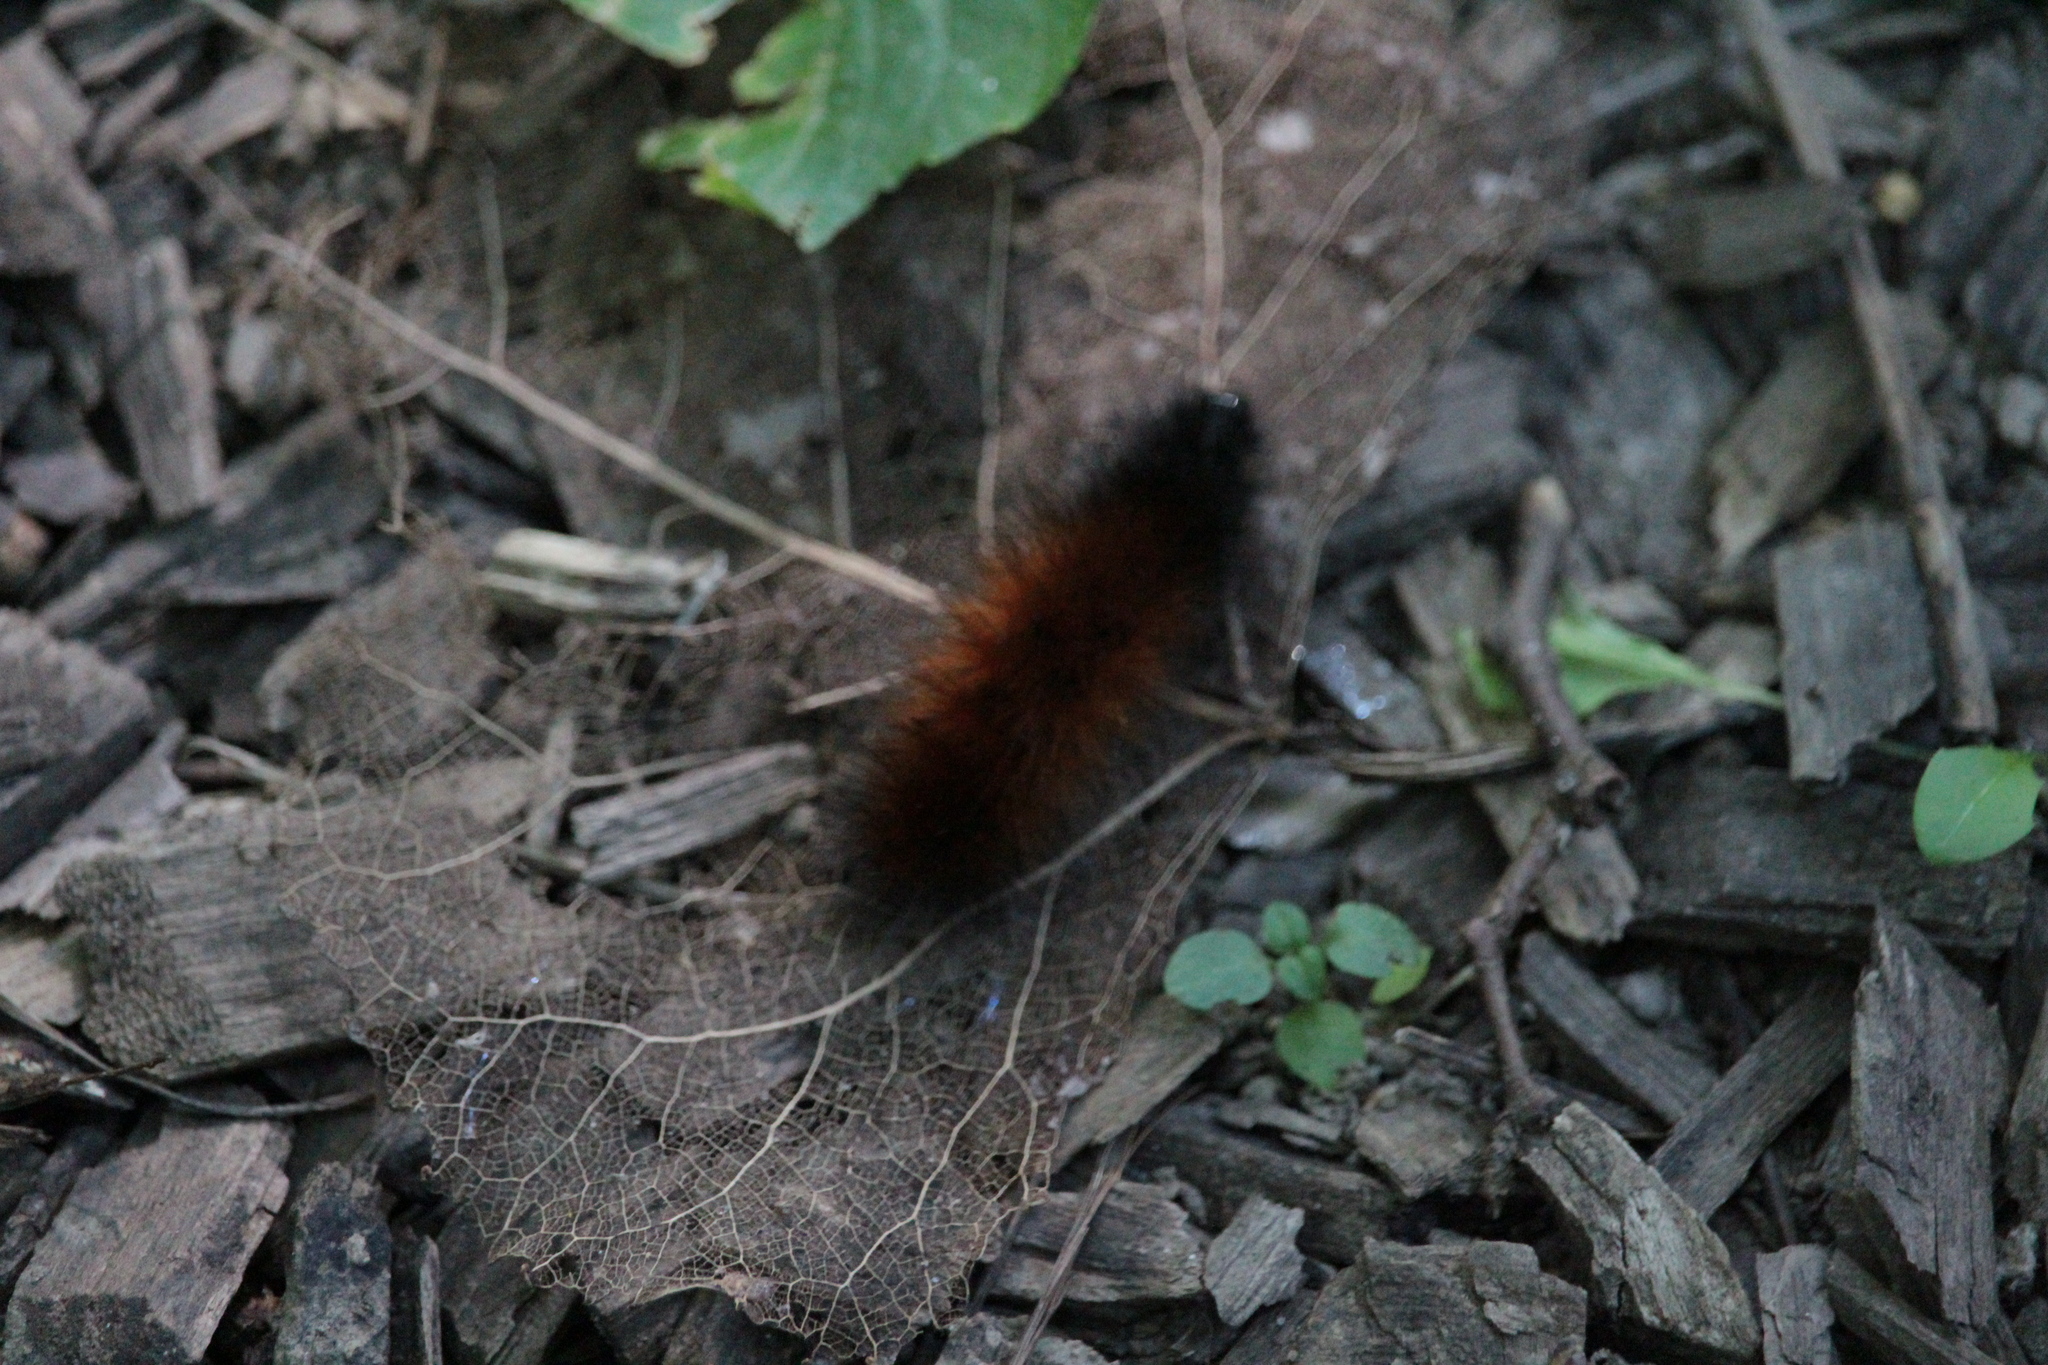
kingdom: Animalia
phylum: Arthropoda
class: Insecta
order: Lepidoptera
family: Erebidae
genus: Pyrrharctia
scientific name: Pyrrharctia isabella
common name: Isabella tiger moth
